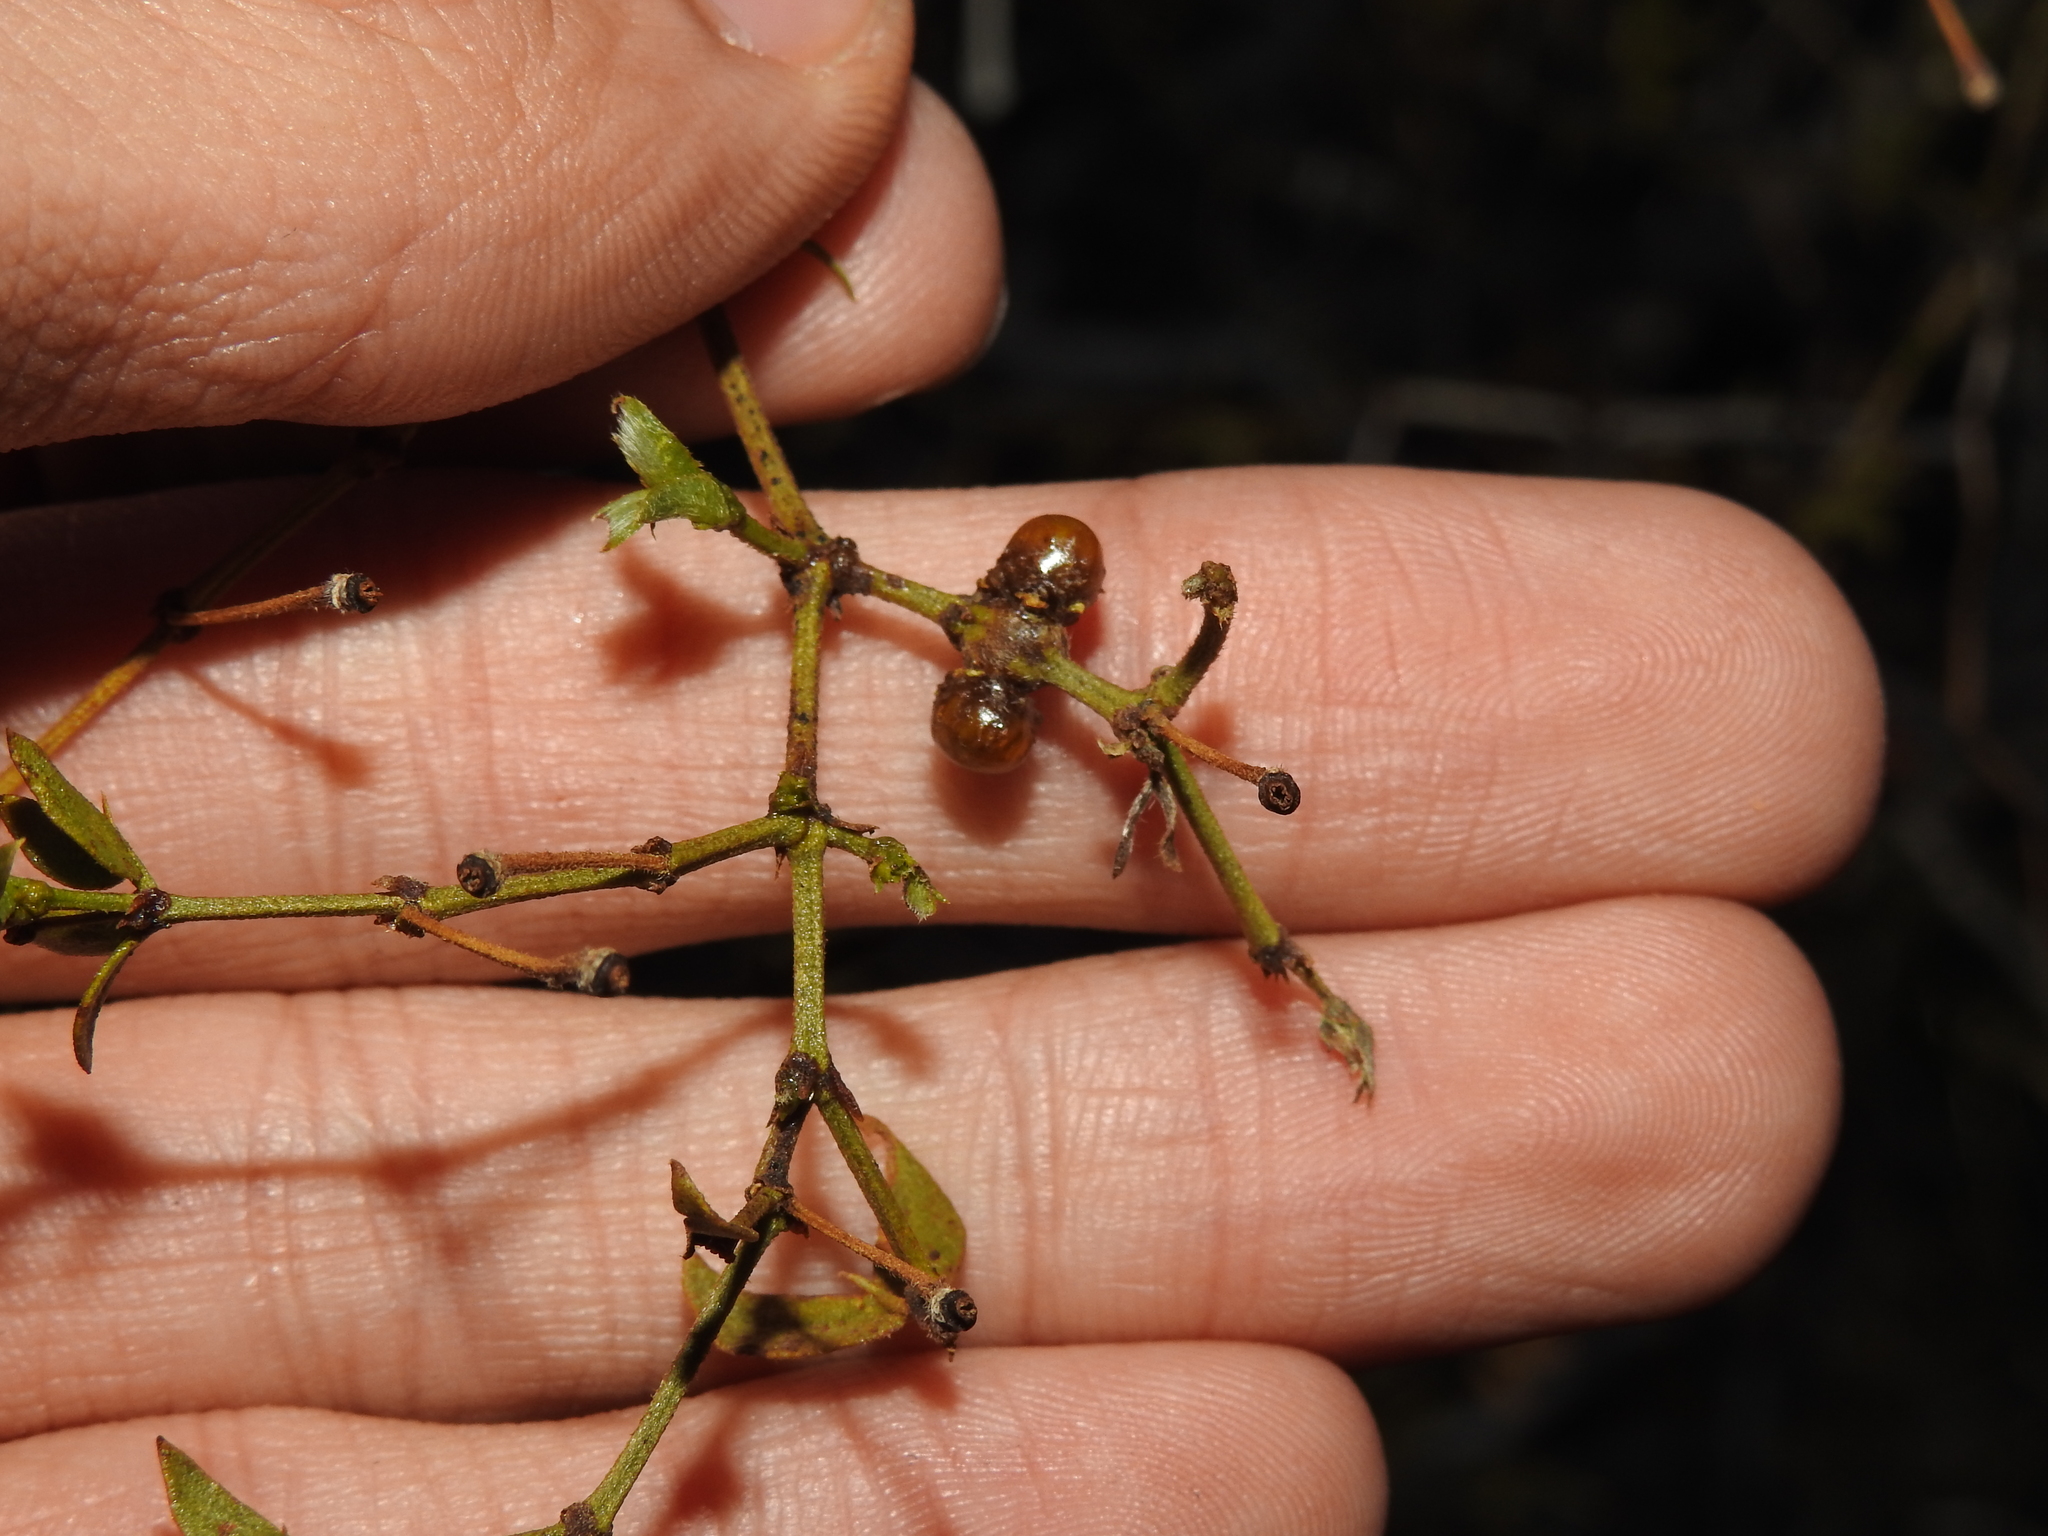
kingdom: Animalia
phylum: Arthropoda
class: Insecta
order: Diptera
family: Cecidomyiidae
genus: Asphondylia
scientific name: Asphondylia resinosa
